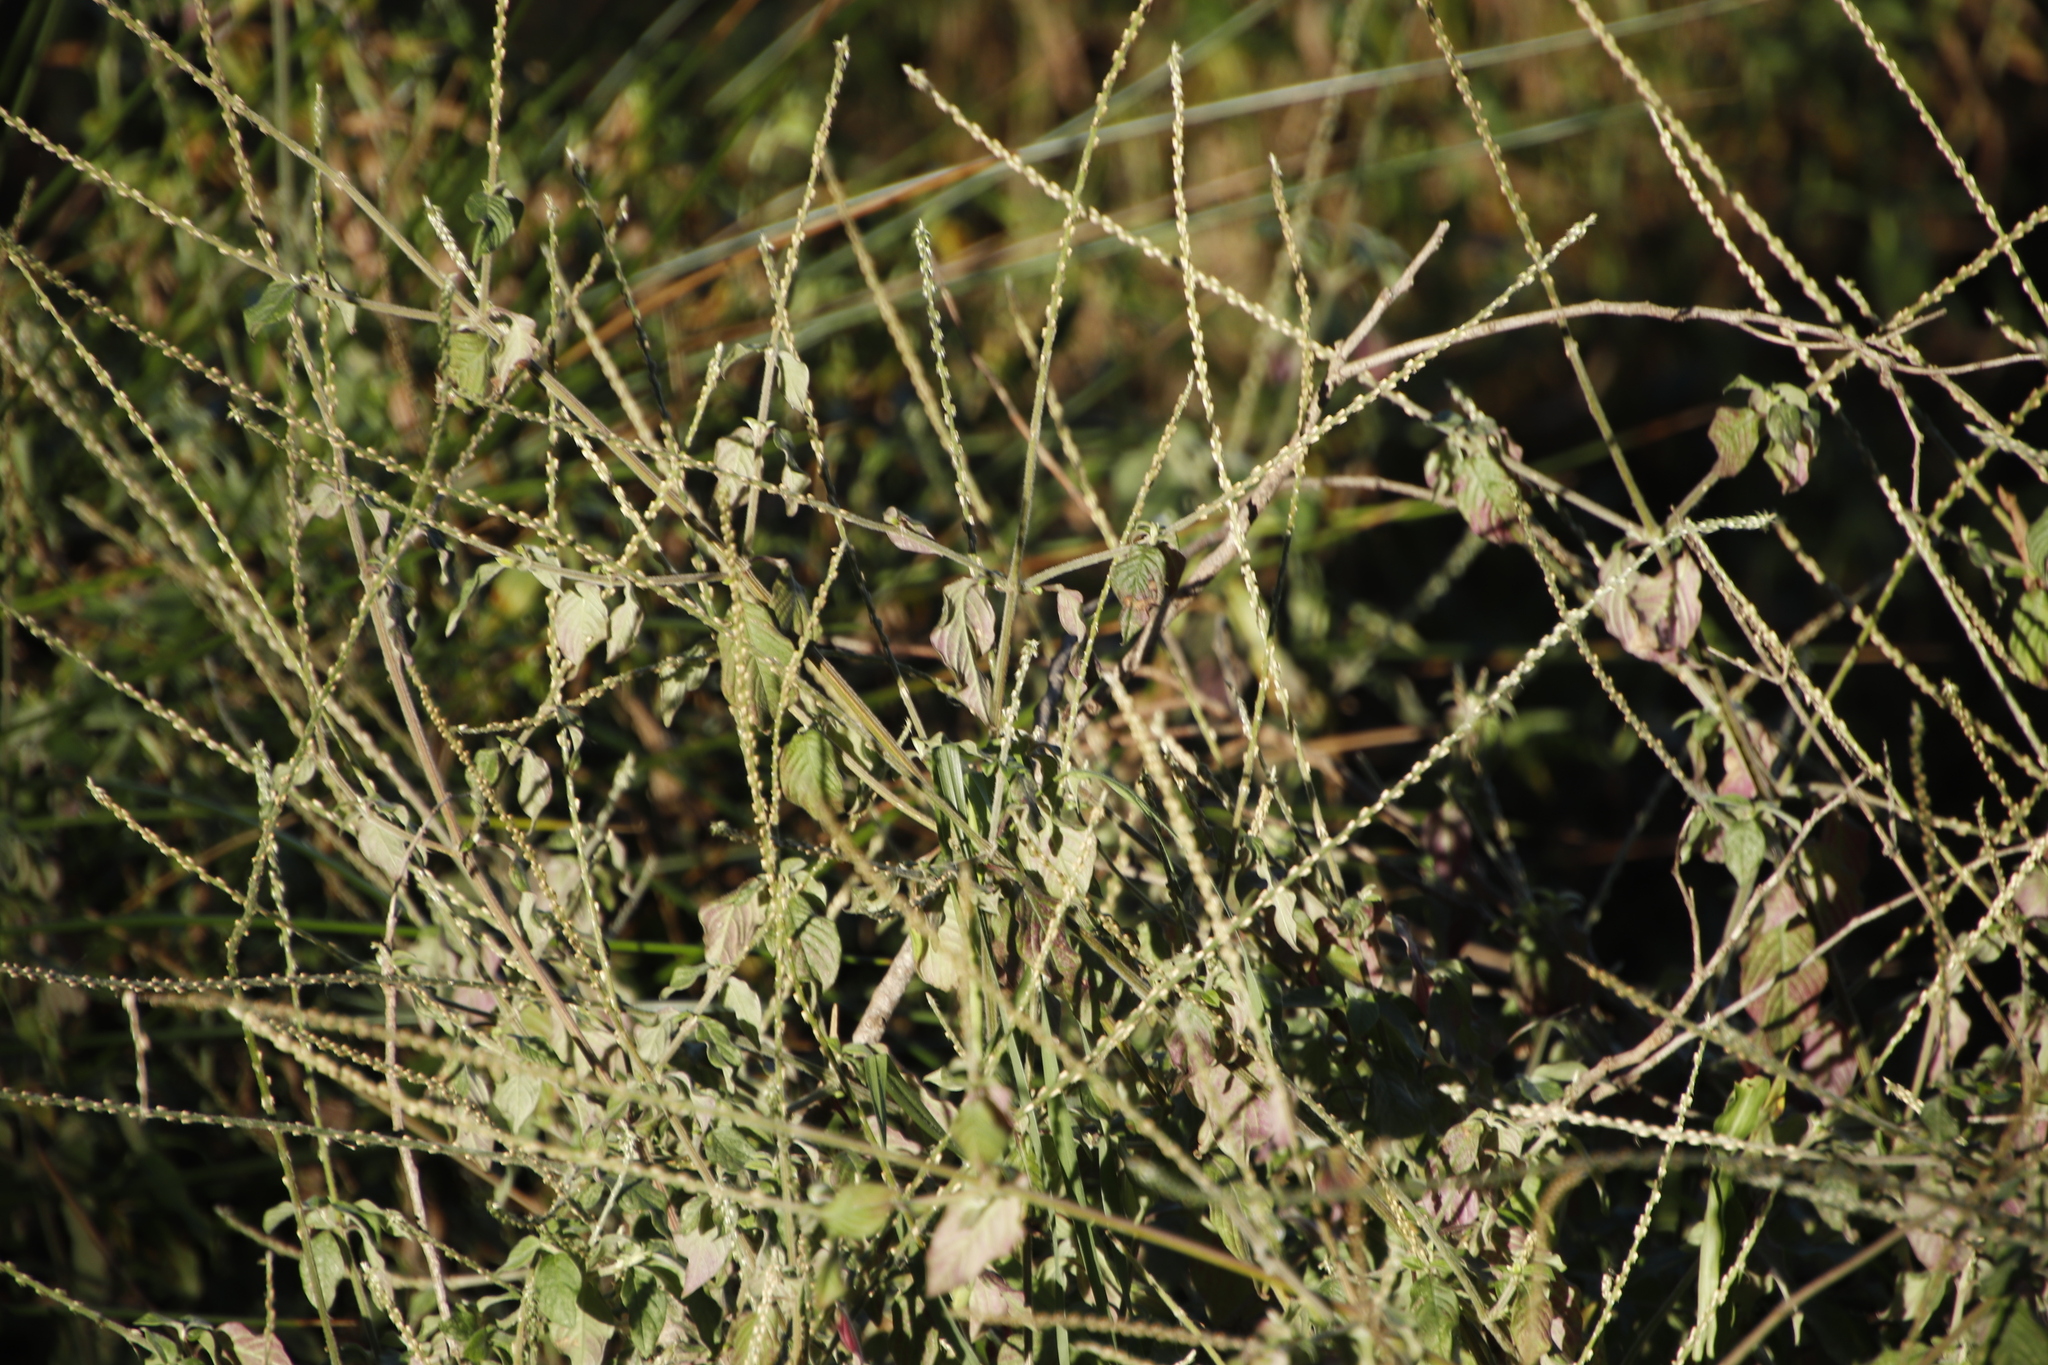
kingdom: Plantae
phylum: Tracheophyta
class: Magnoliopsida
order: Caryophyllales
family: Amaranthaceae
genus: Achyranthes
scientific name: Achyranthes aspera
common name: Devil's horsewhip
